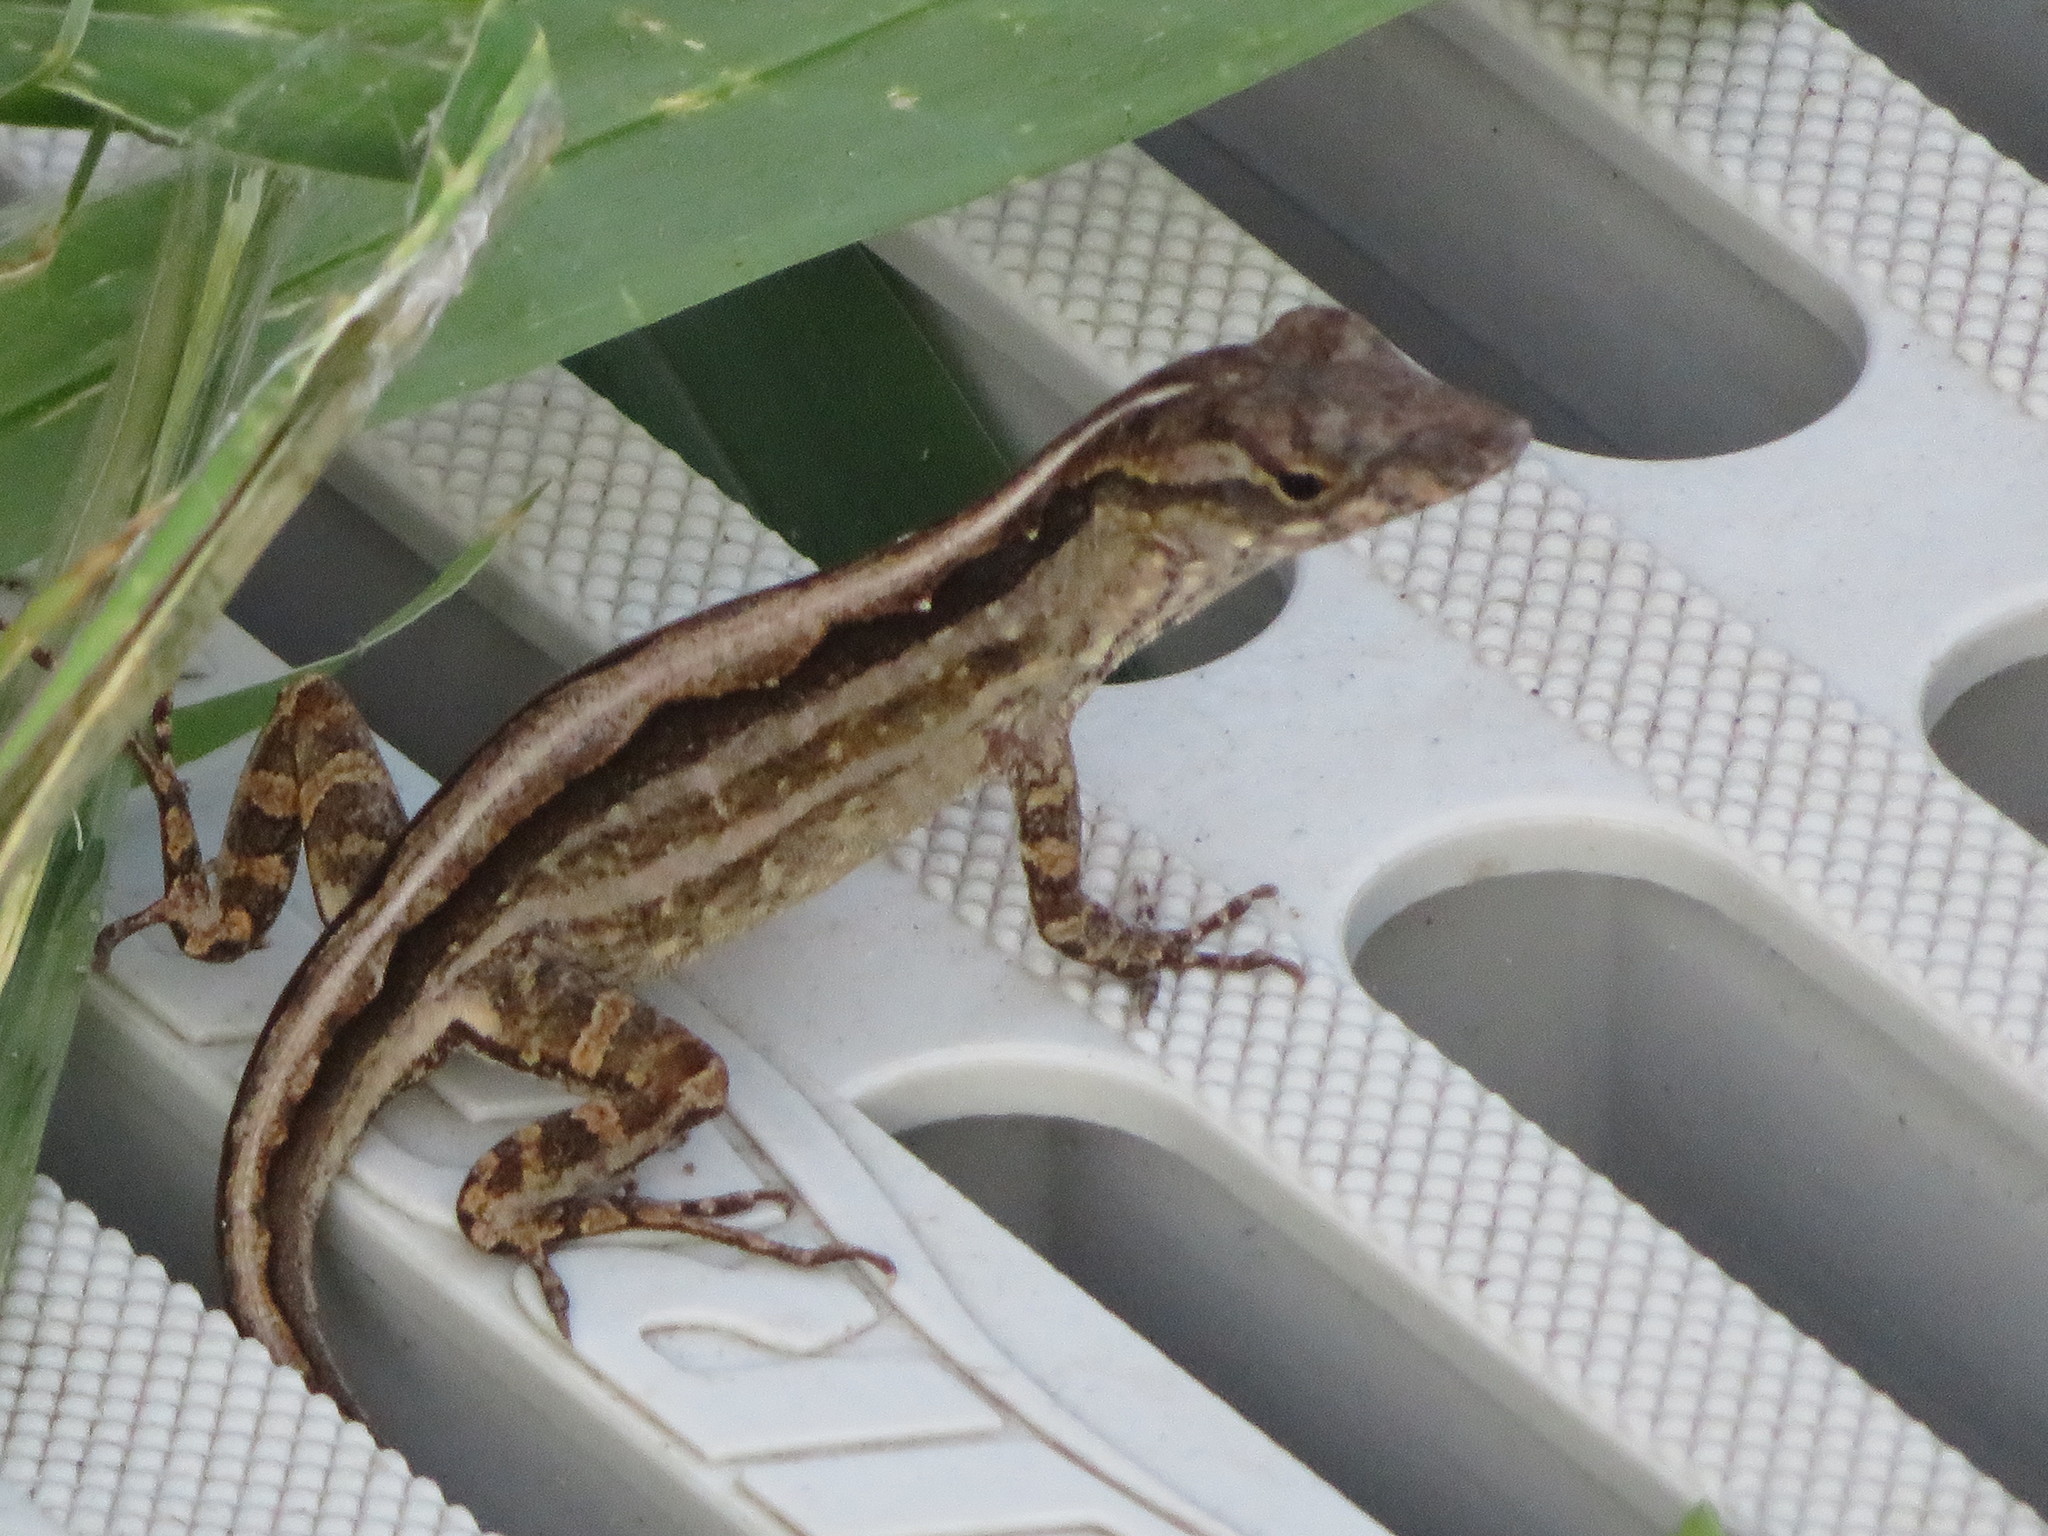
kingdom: Animalia
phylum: Chordata
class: Squamata
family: Dactyloidae
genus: Anolis
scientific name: Anolis sagrei
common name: Brown anole
